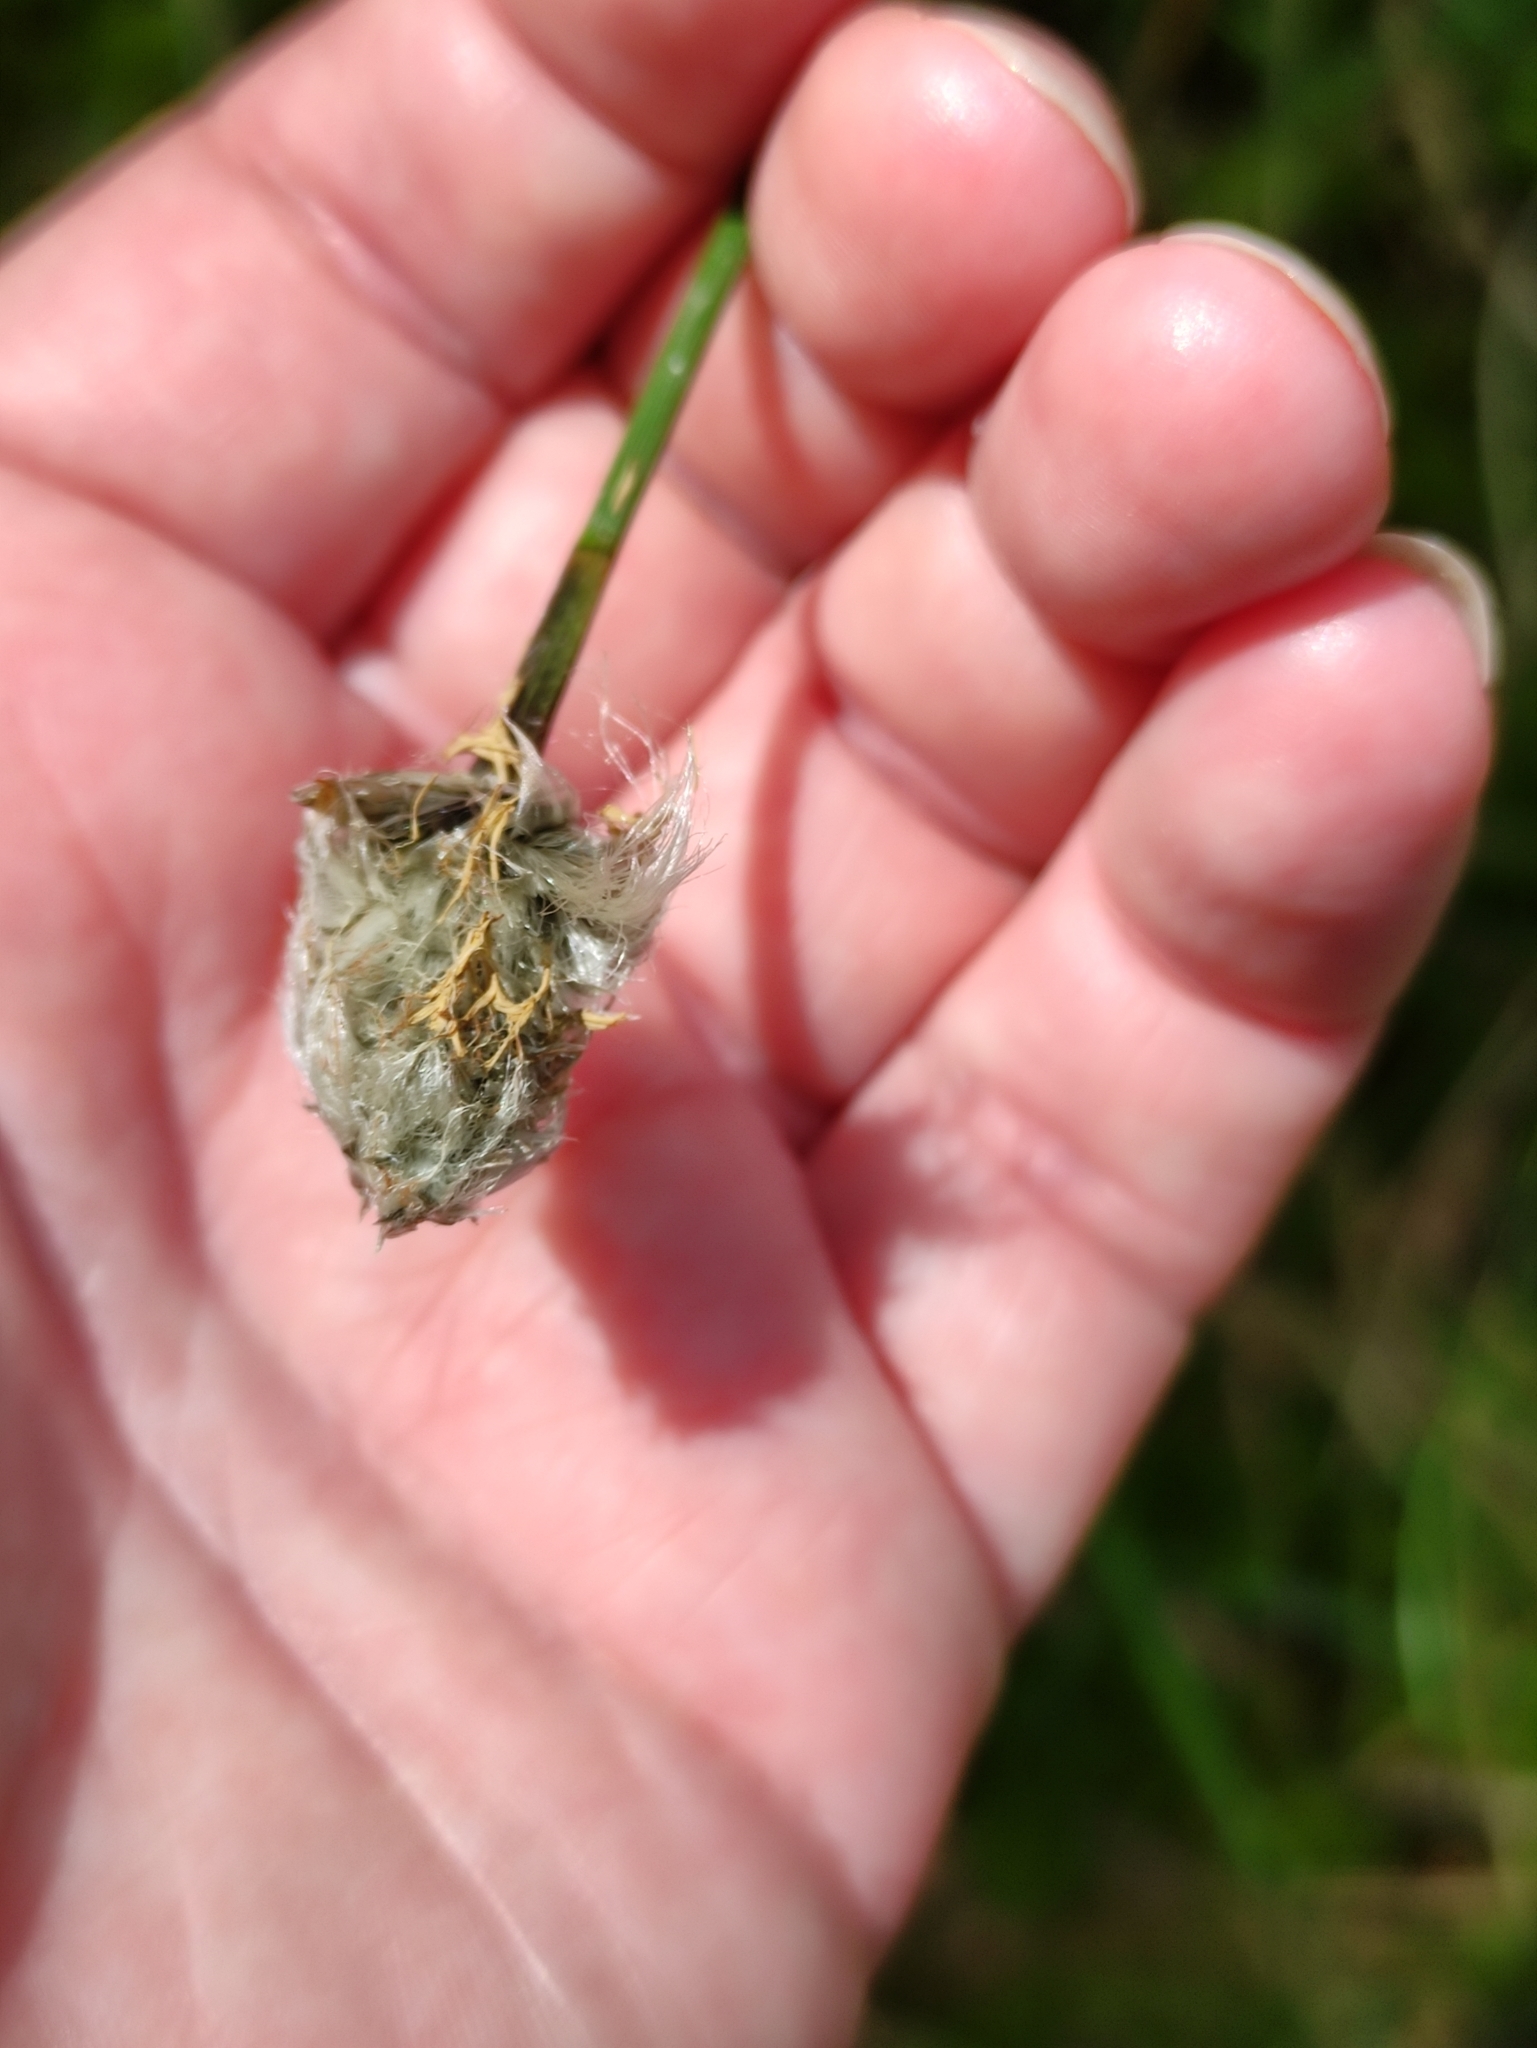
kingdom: Plantae
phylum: Tracheophyta
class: Liliopsida
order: Poales
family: Cyperaceae
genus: Eriophorum
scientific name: Eriophorum vaginatum
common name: Hare's-tail cottongrass
